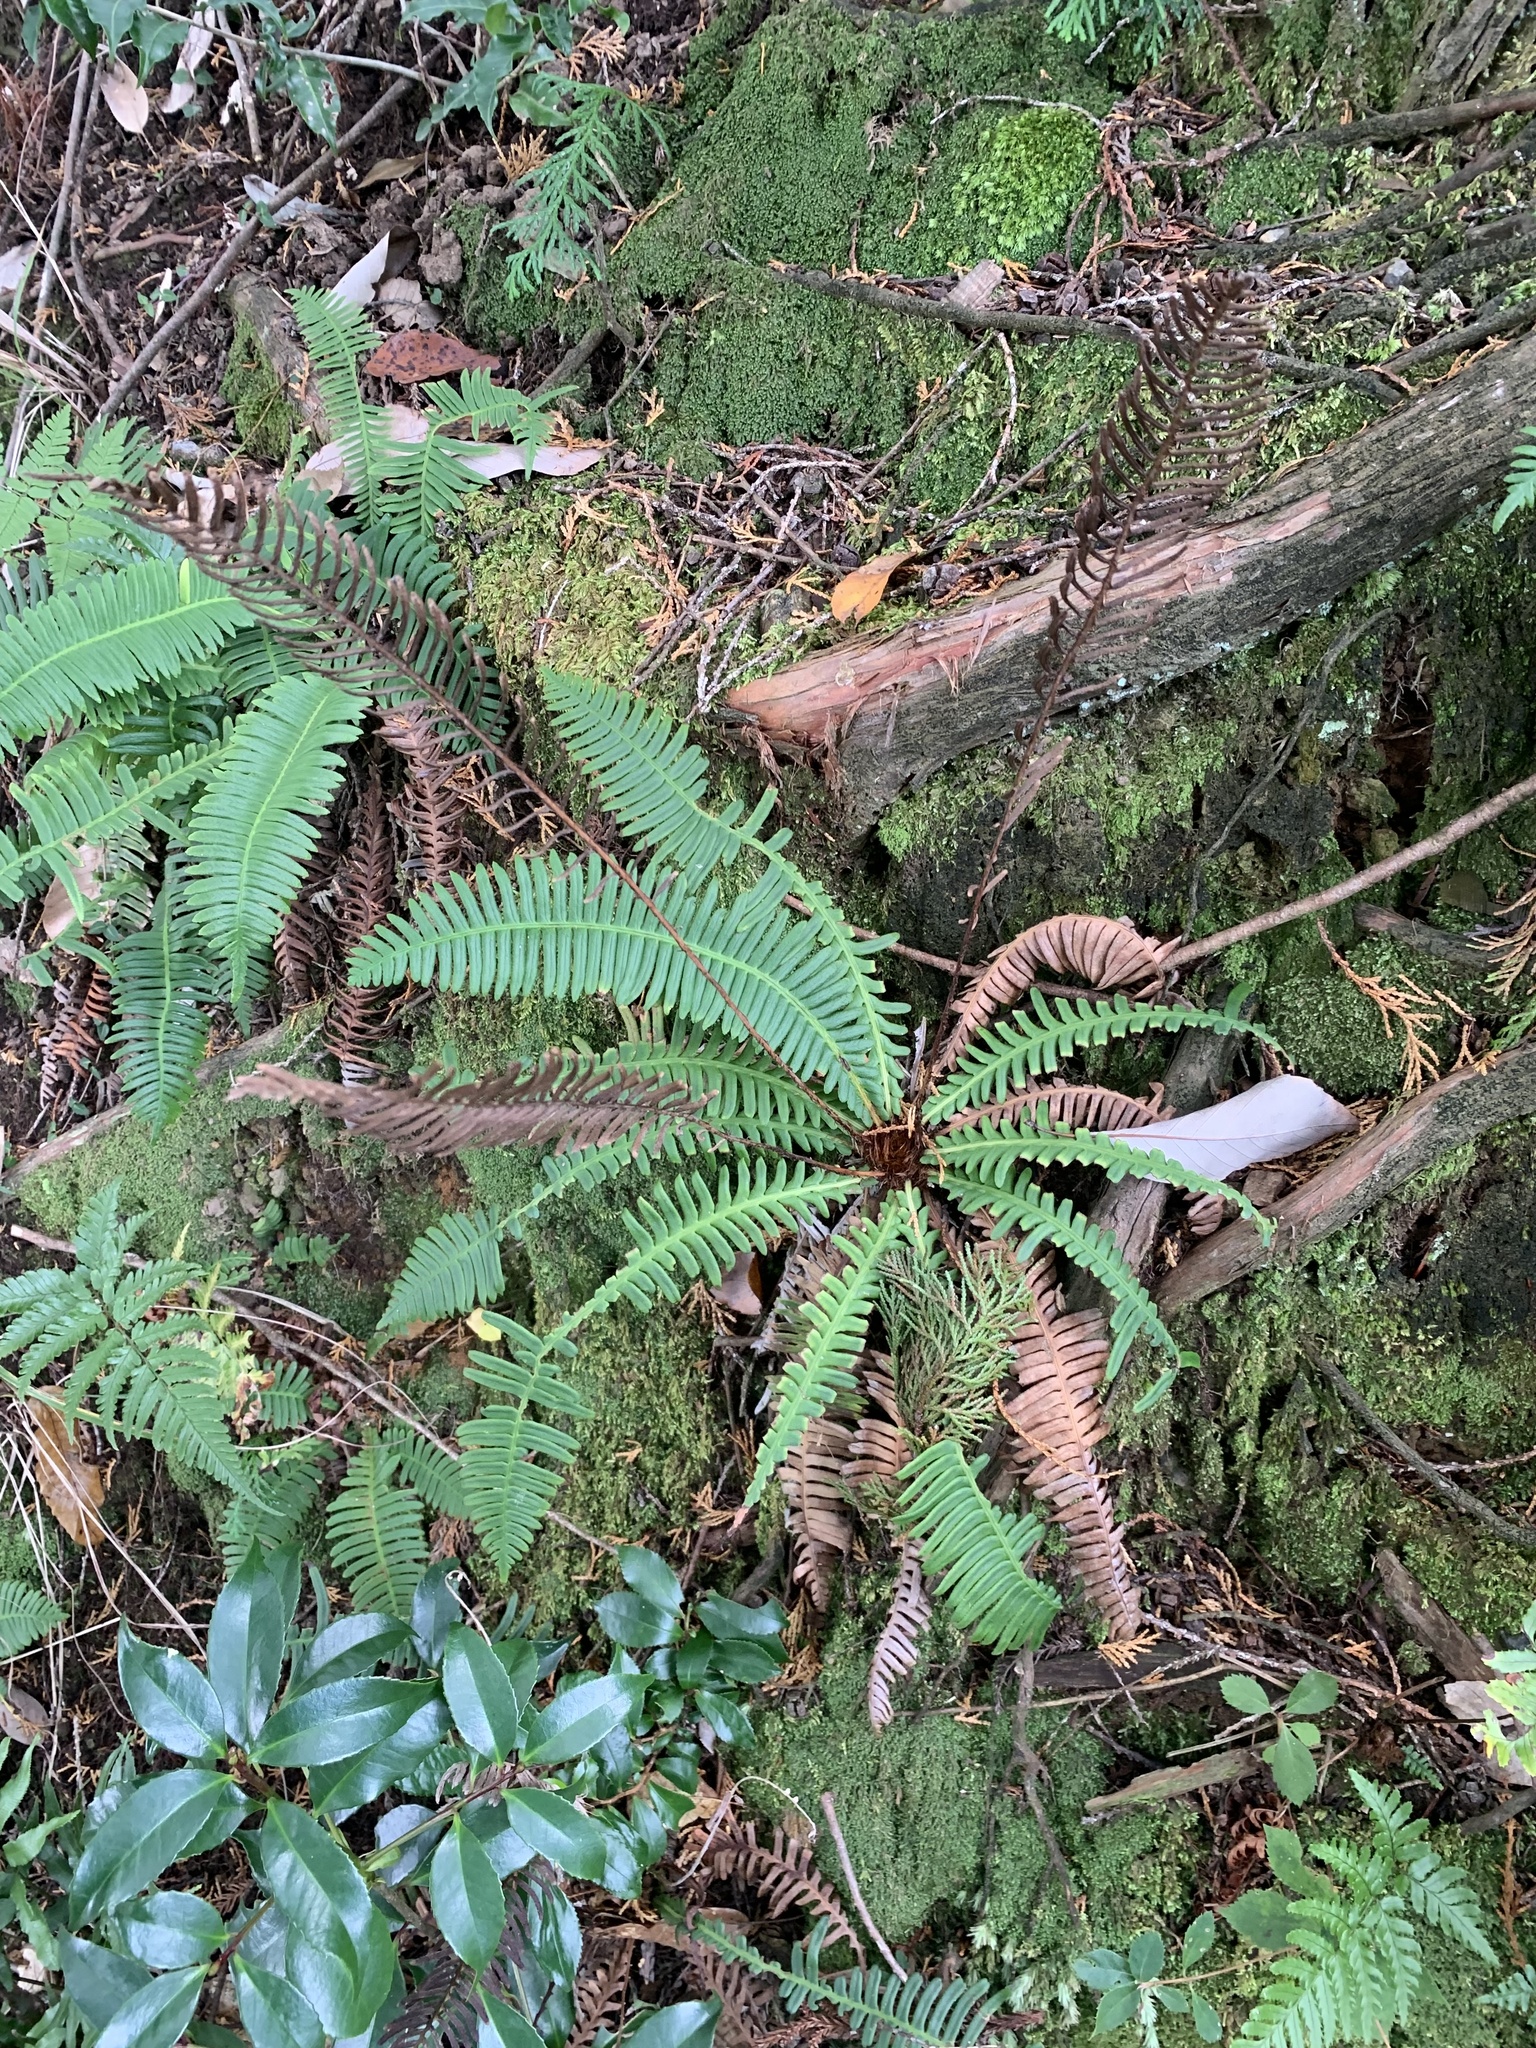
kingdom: Plantae
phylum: Tracheophyta
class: Polypodiopsida
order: Polypodiales
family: Blechnaceae
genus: Spicantopsis
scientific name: Spicantopsis niponica
